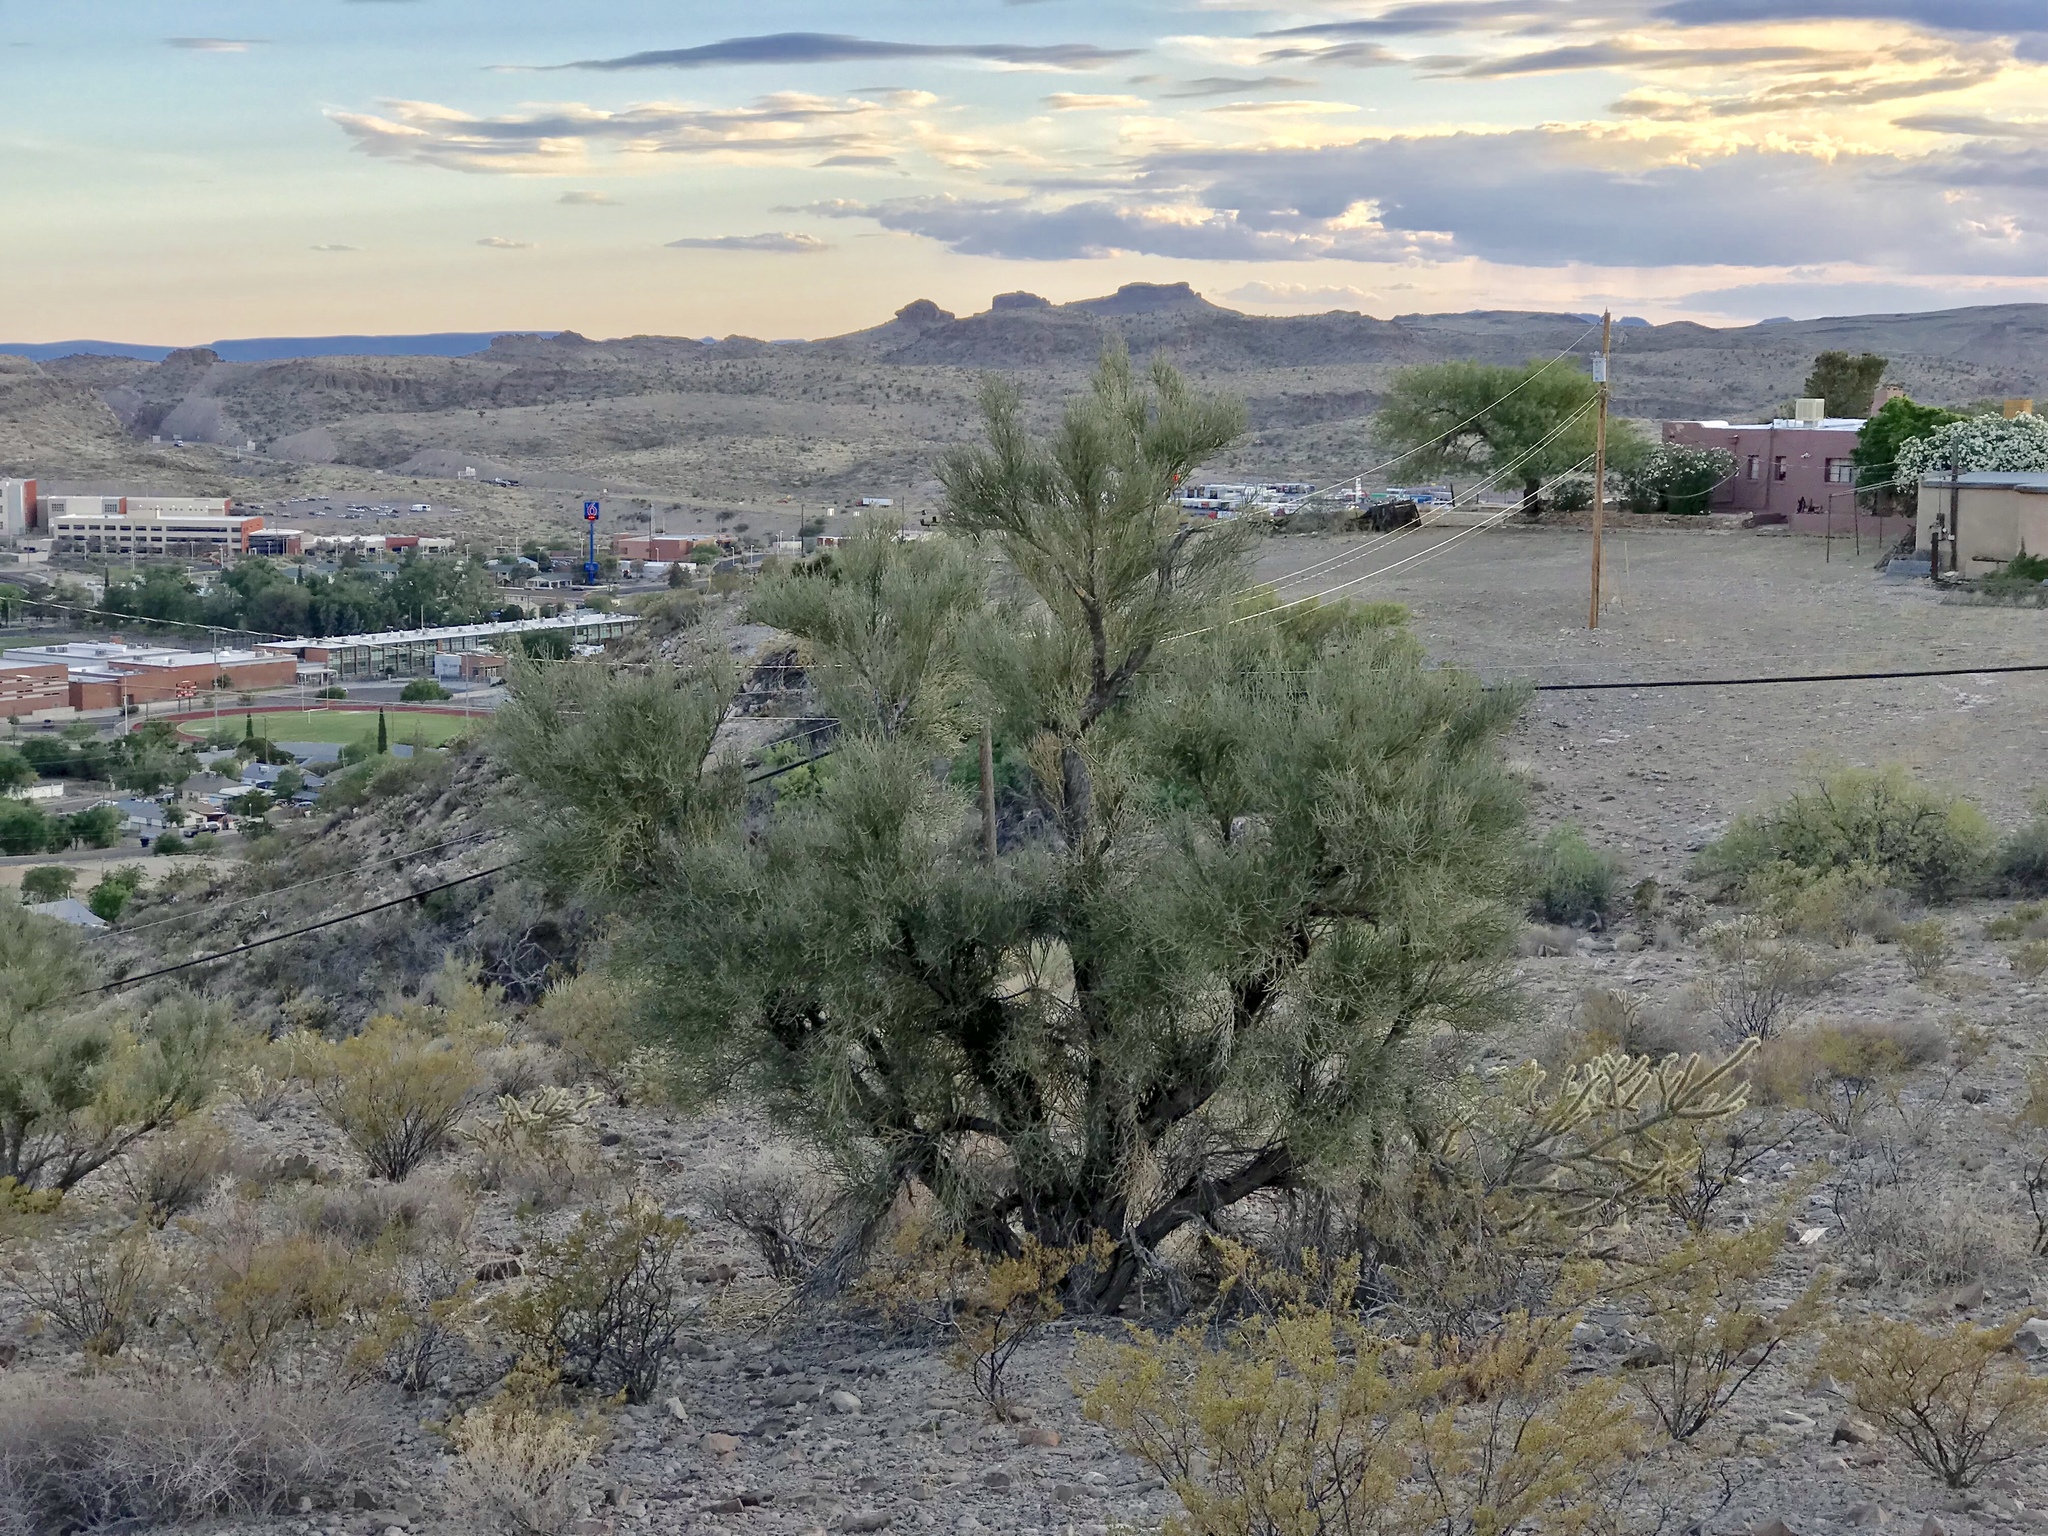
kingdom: Plantae
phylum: Tracheophyta
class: Magnoliopsida
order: Celastrales
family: Celastraceae
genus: Canotia
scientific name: Canotia holacantha
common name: Crucifixion thorns
